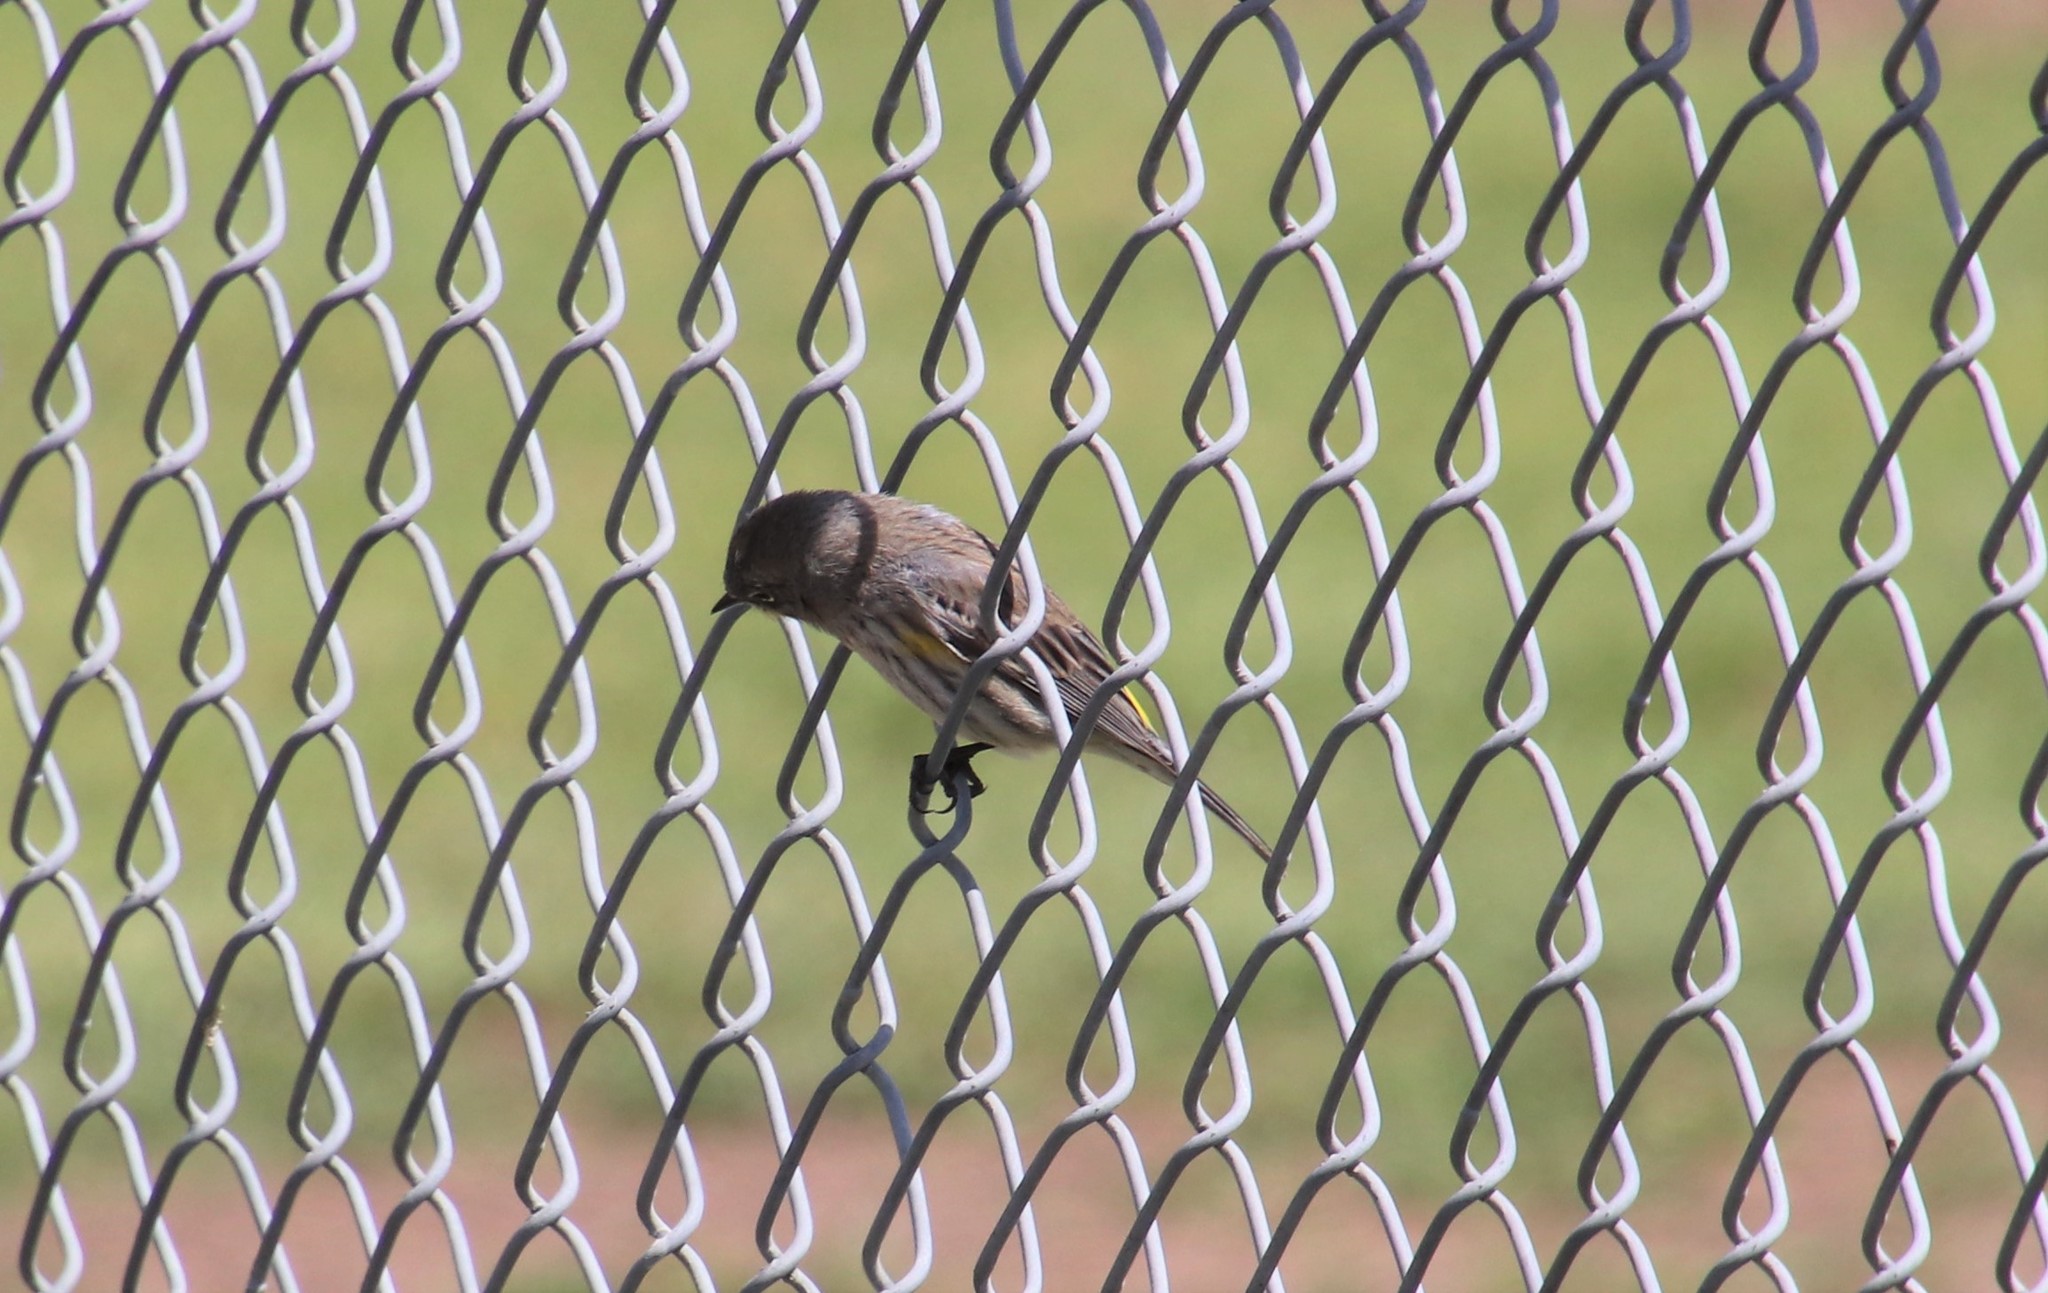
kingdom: Animalia
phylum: Chordata
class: Aves
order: Passeriformes
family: Parulidae
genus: Setophaga
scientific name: Setophaga auduboni
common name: Audubon's warbler
